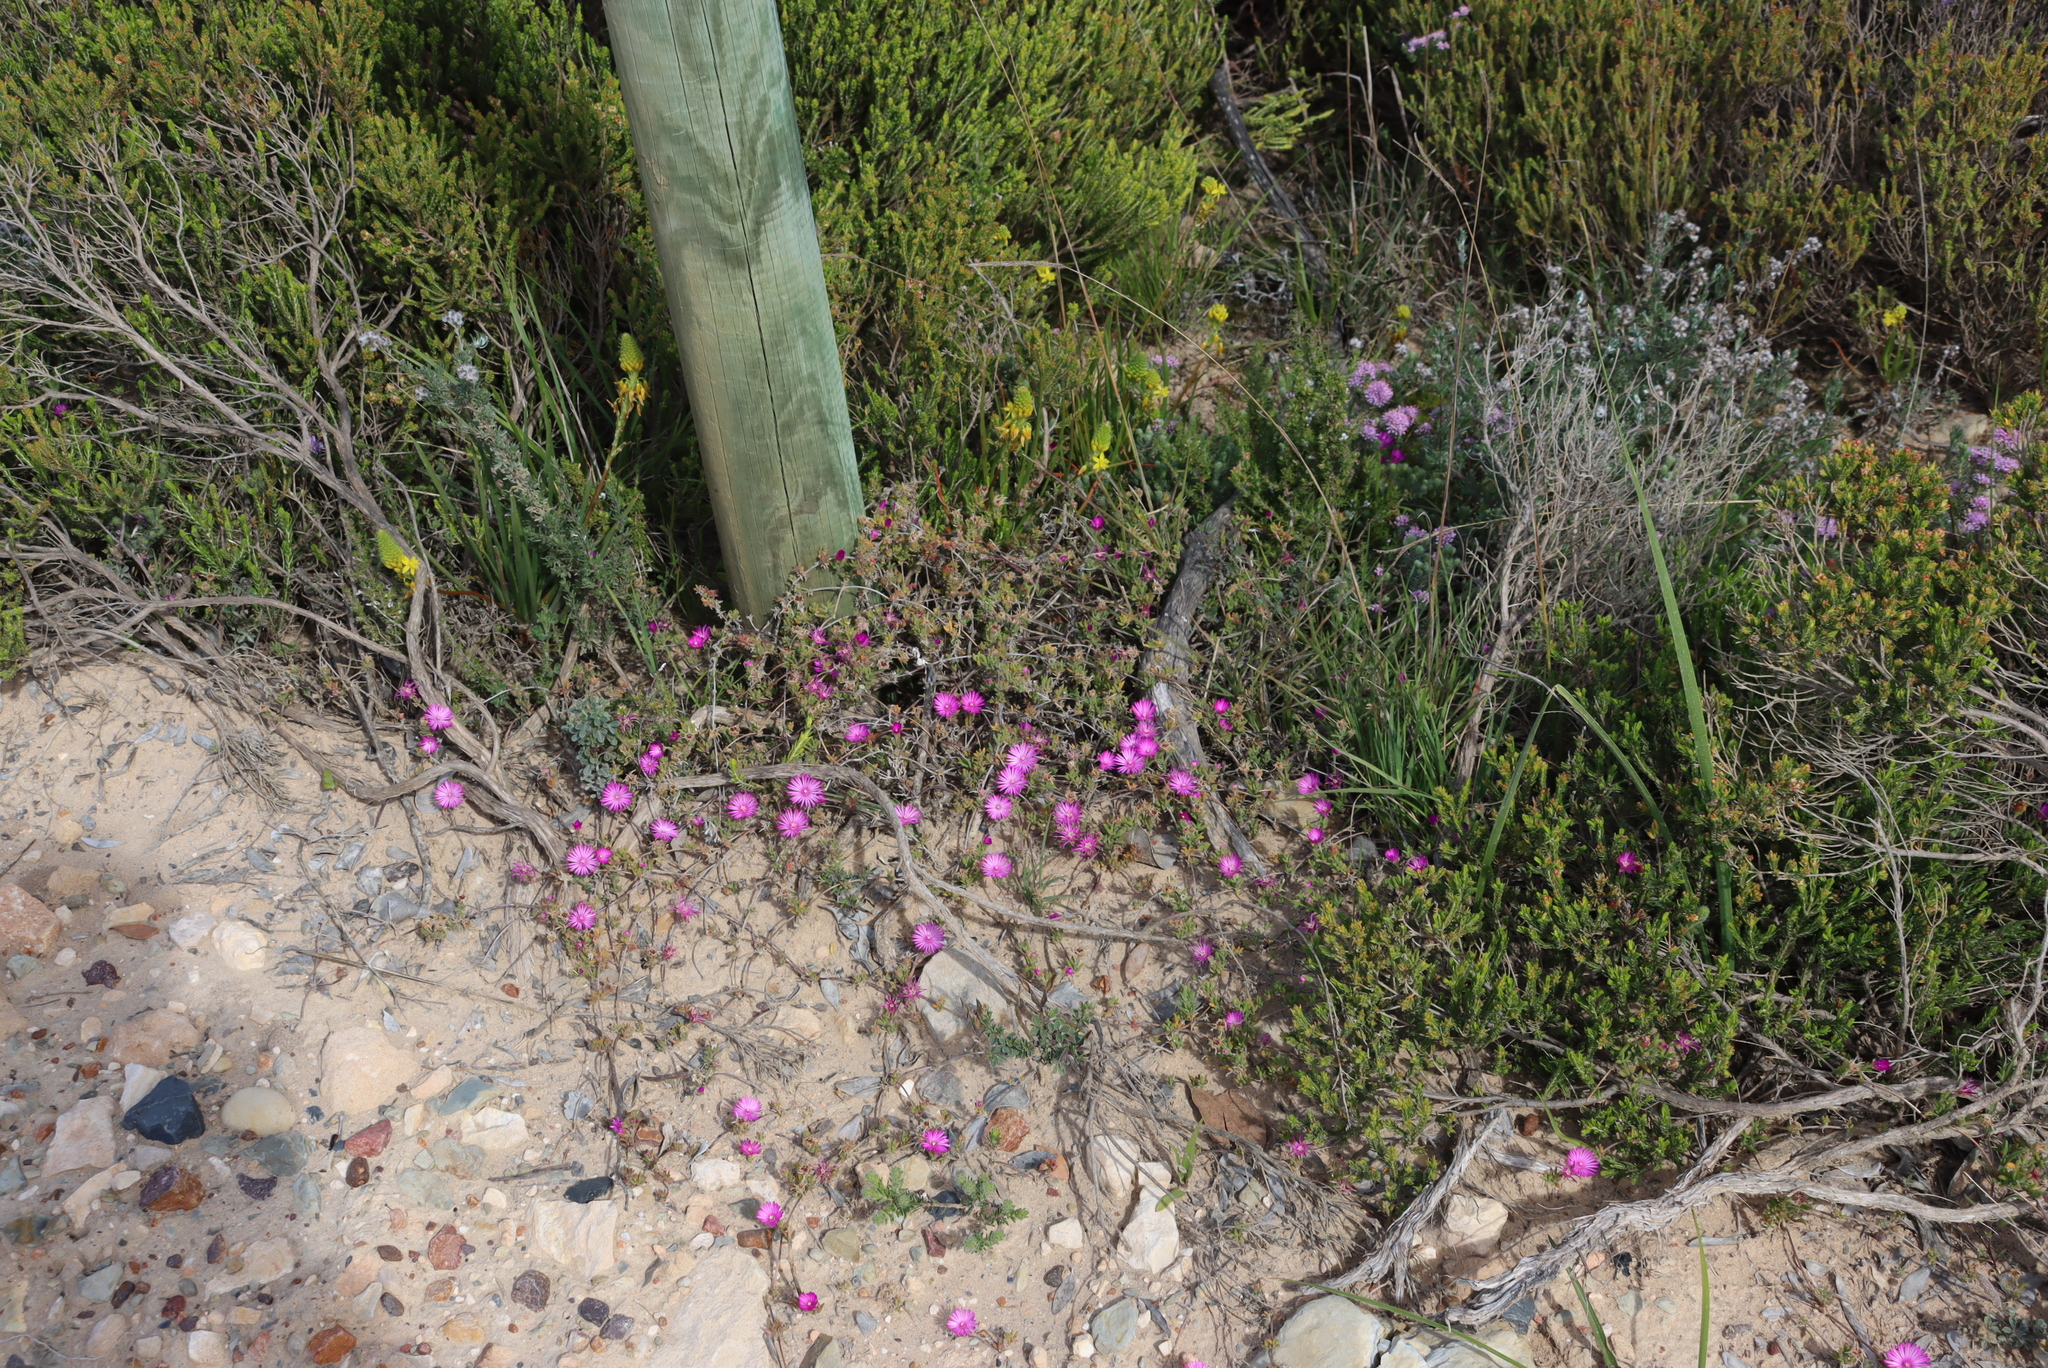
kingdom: Plantae
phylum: Tracheophyta
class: Magnoliopsida
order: Caryophyllales
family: Aizoaceae
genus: Drosanthemum
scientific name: Drosanthemum calcareum
